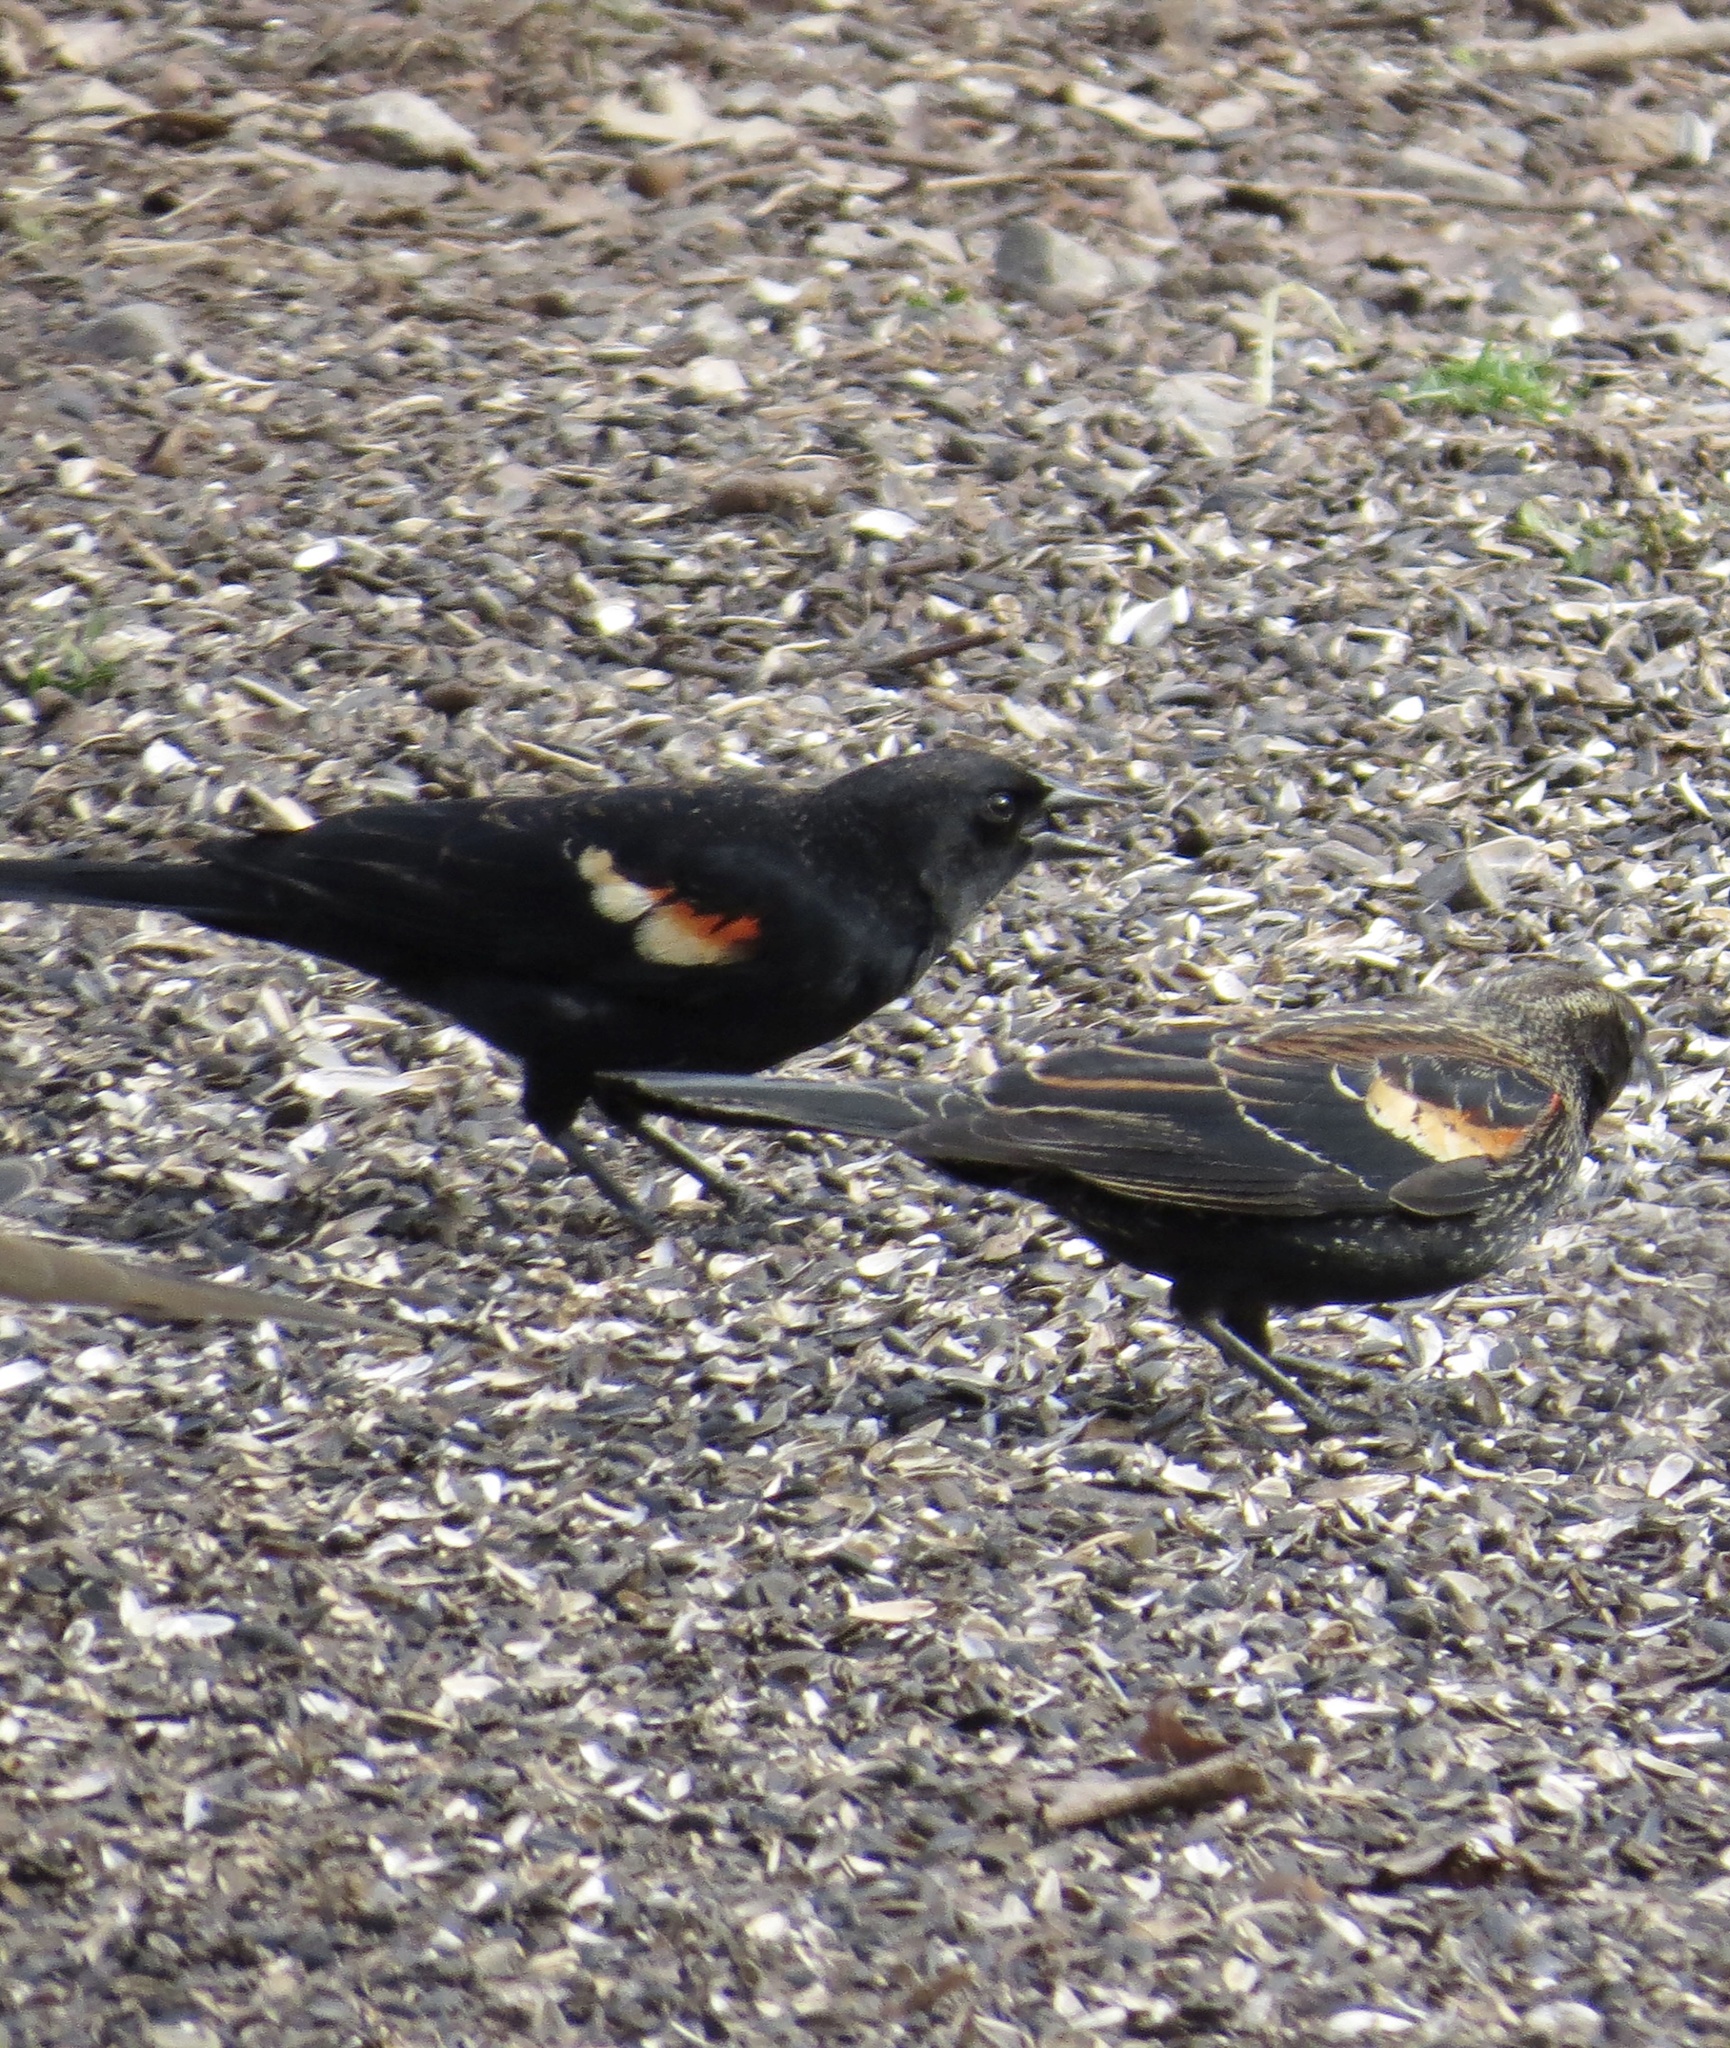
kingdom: Animalia
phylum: Chordata
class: Aves
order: Passeriformes
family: Icteridae
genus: Agelaius
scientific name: Agelaius phoeniceus
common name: Red-winged blackbird
